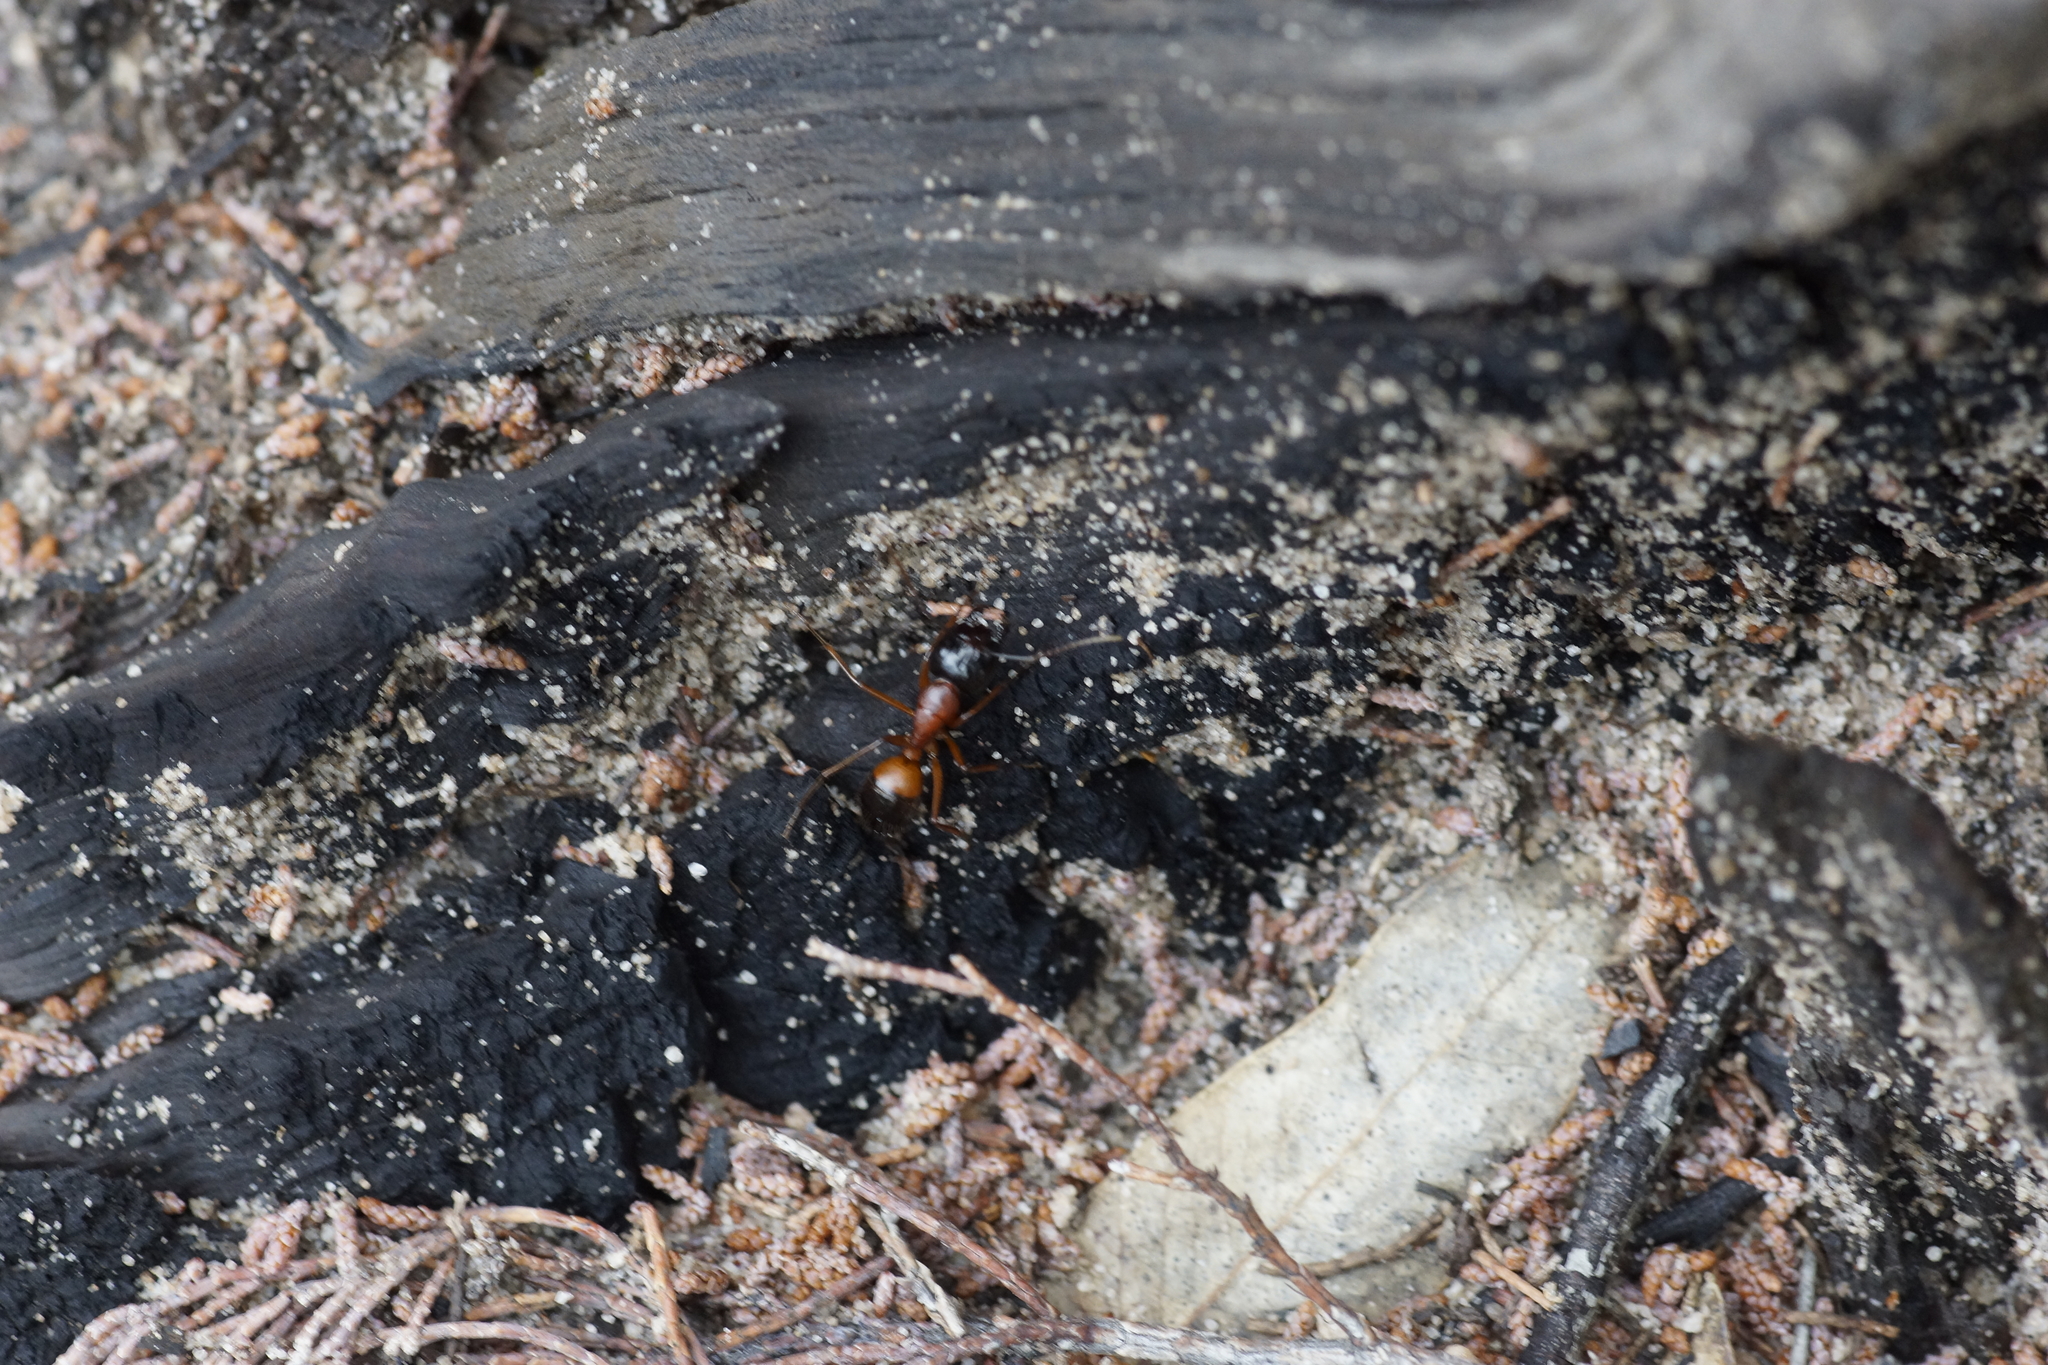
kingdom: Animalia
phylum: Arthropoda
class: Insecta
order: Hymenoptera
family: Formicidae
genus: Camponotus
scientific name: Camponotus consobrinus
